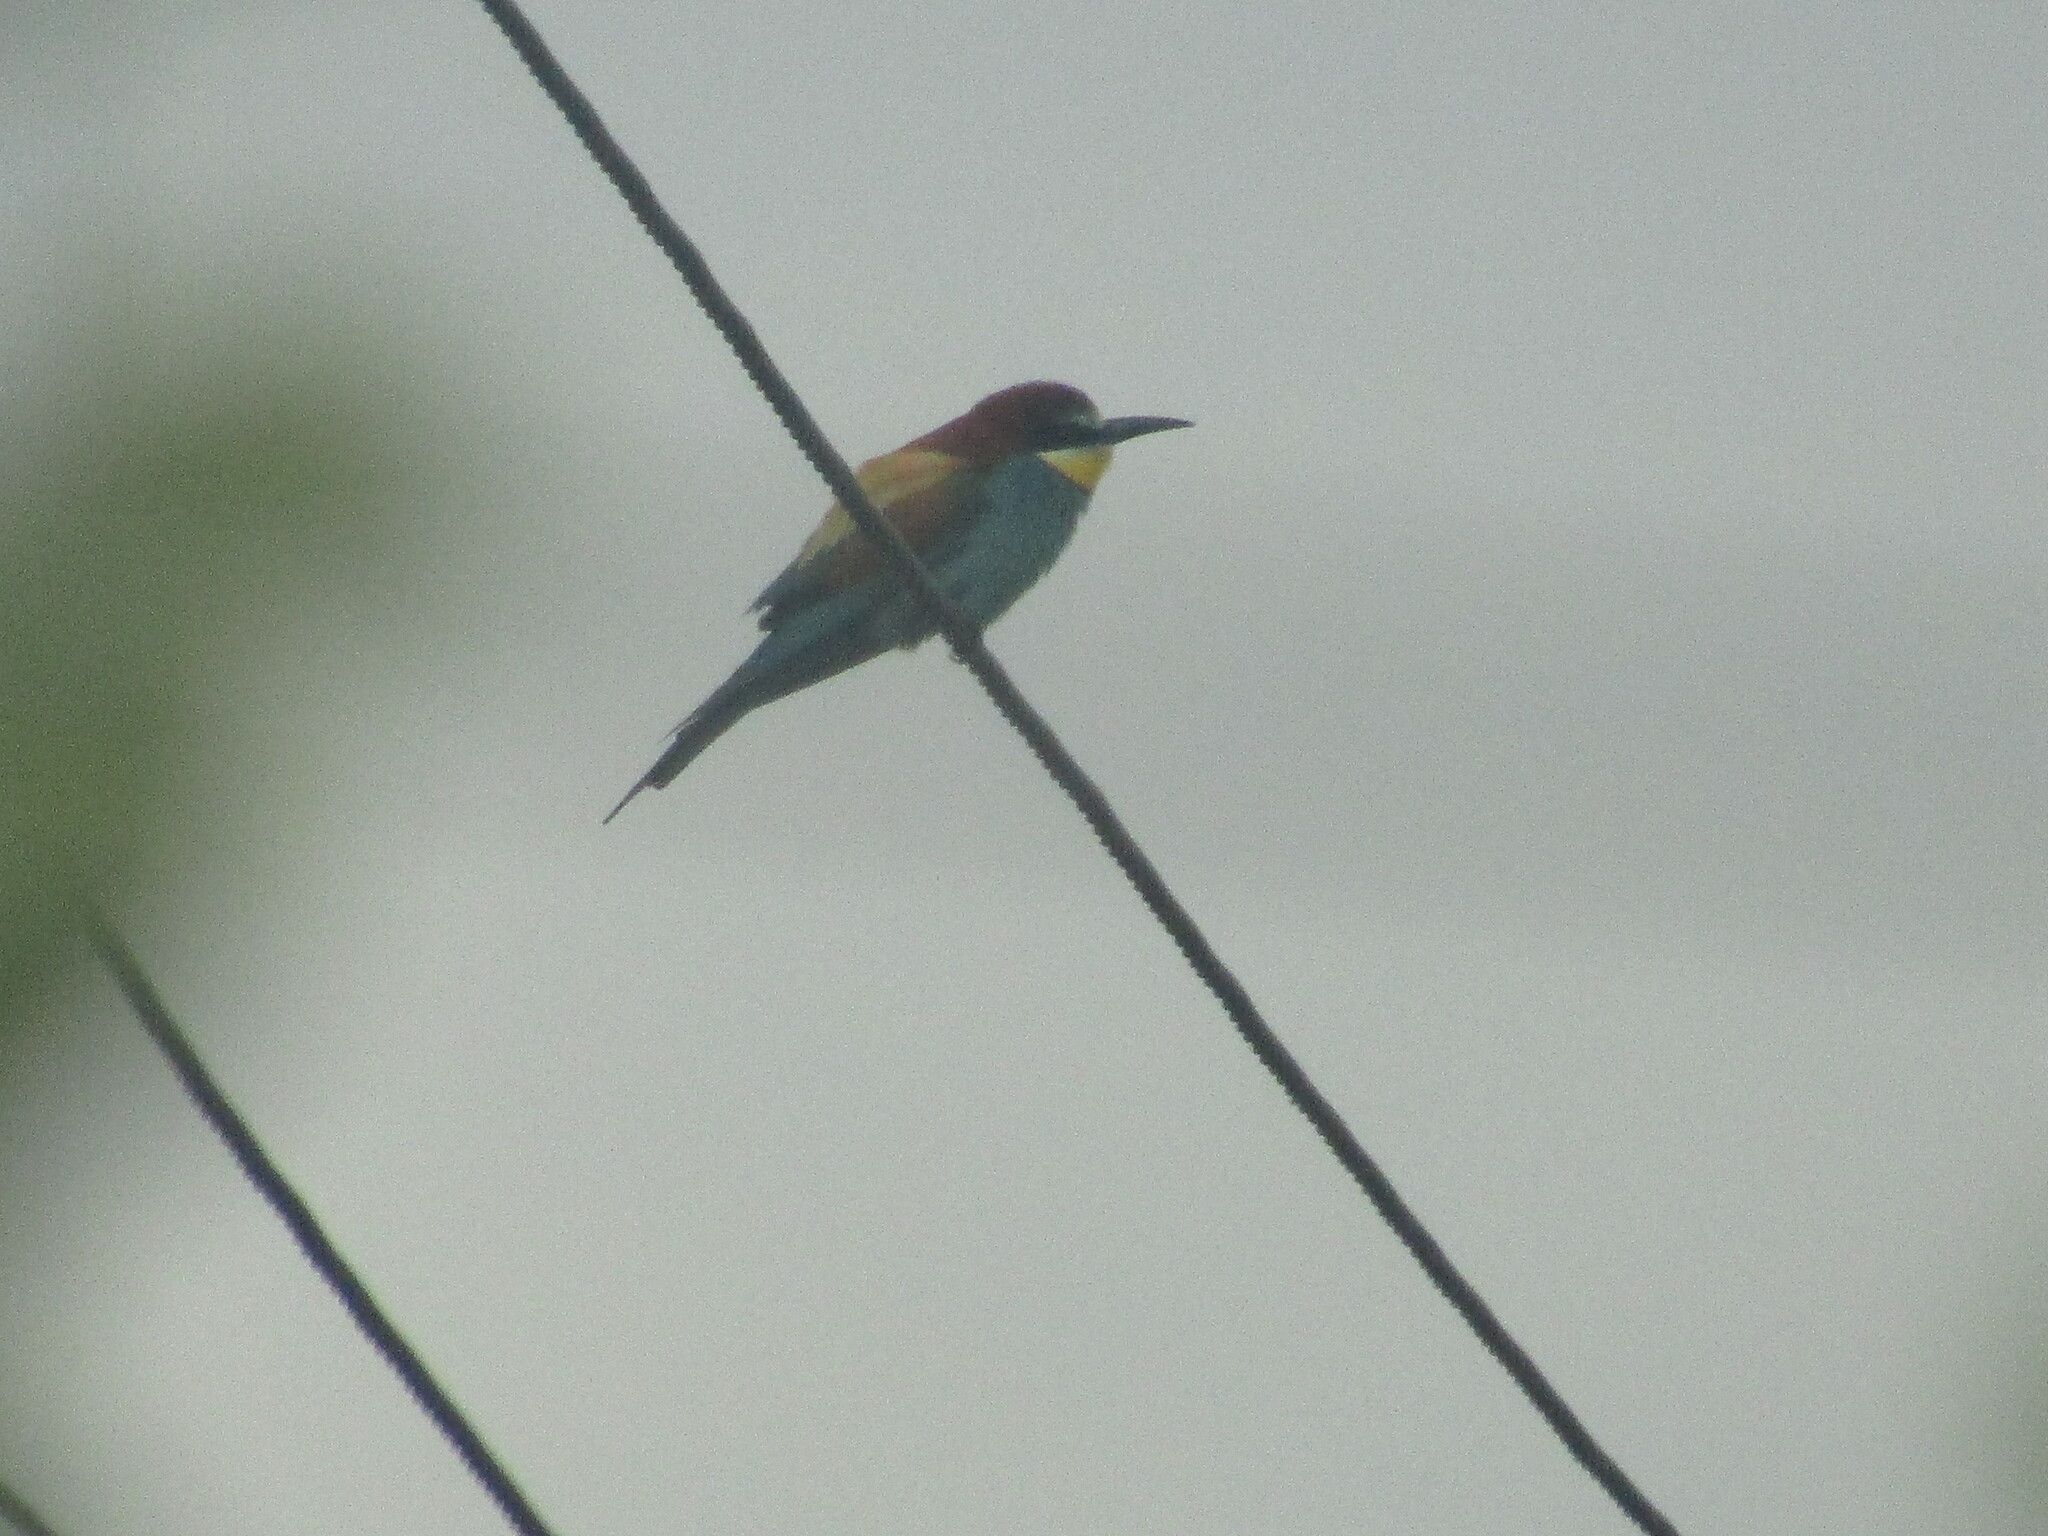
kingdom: Animalia
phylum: Chordata
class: Aves
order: Coraciiformes
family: Meropidae
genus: Merops
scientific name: Merops apiaster
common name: European bee-eater
